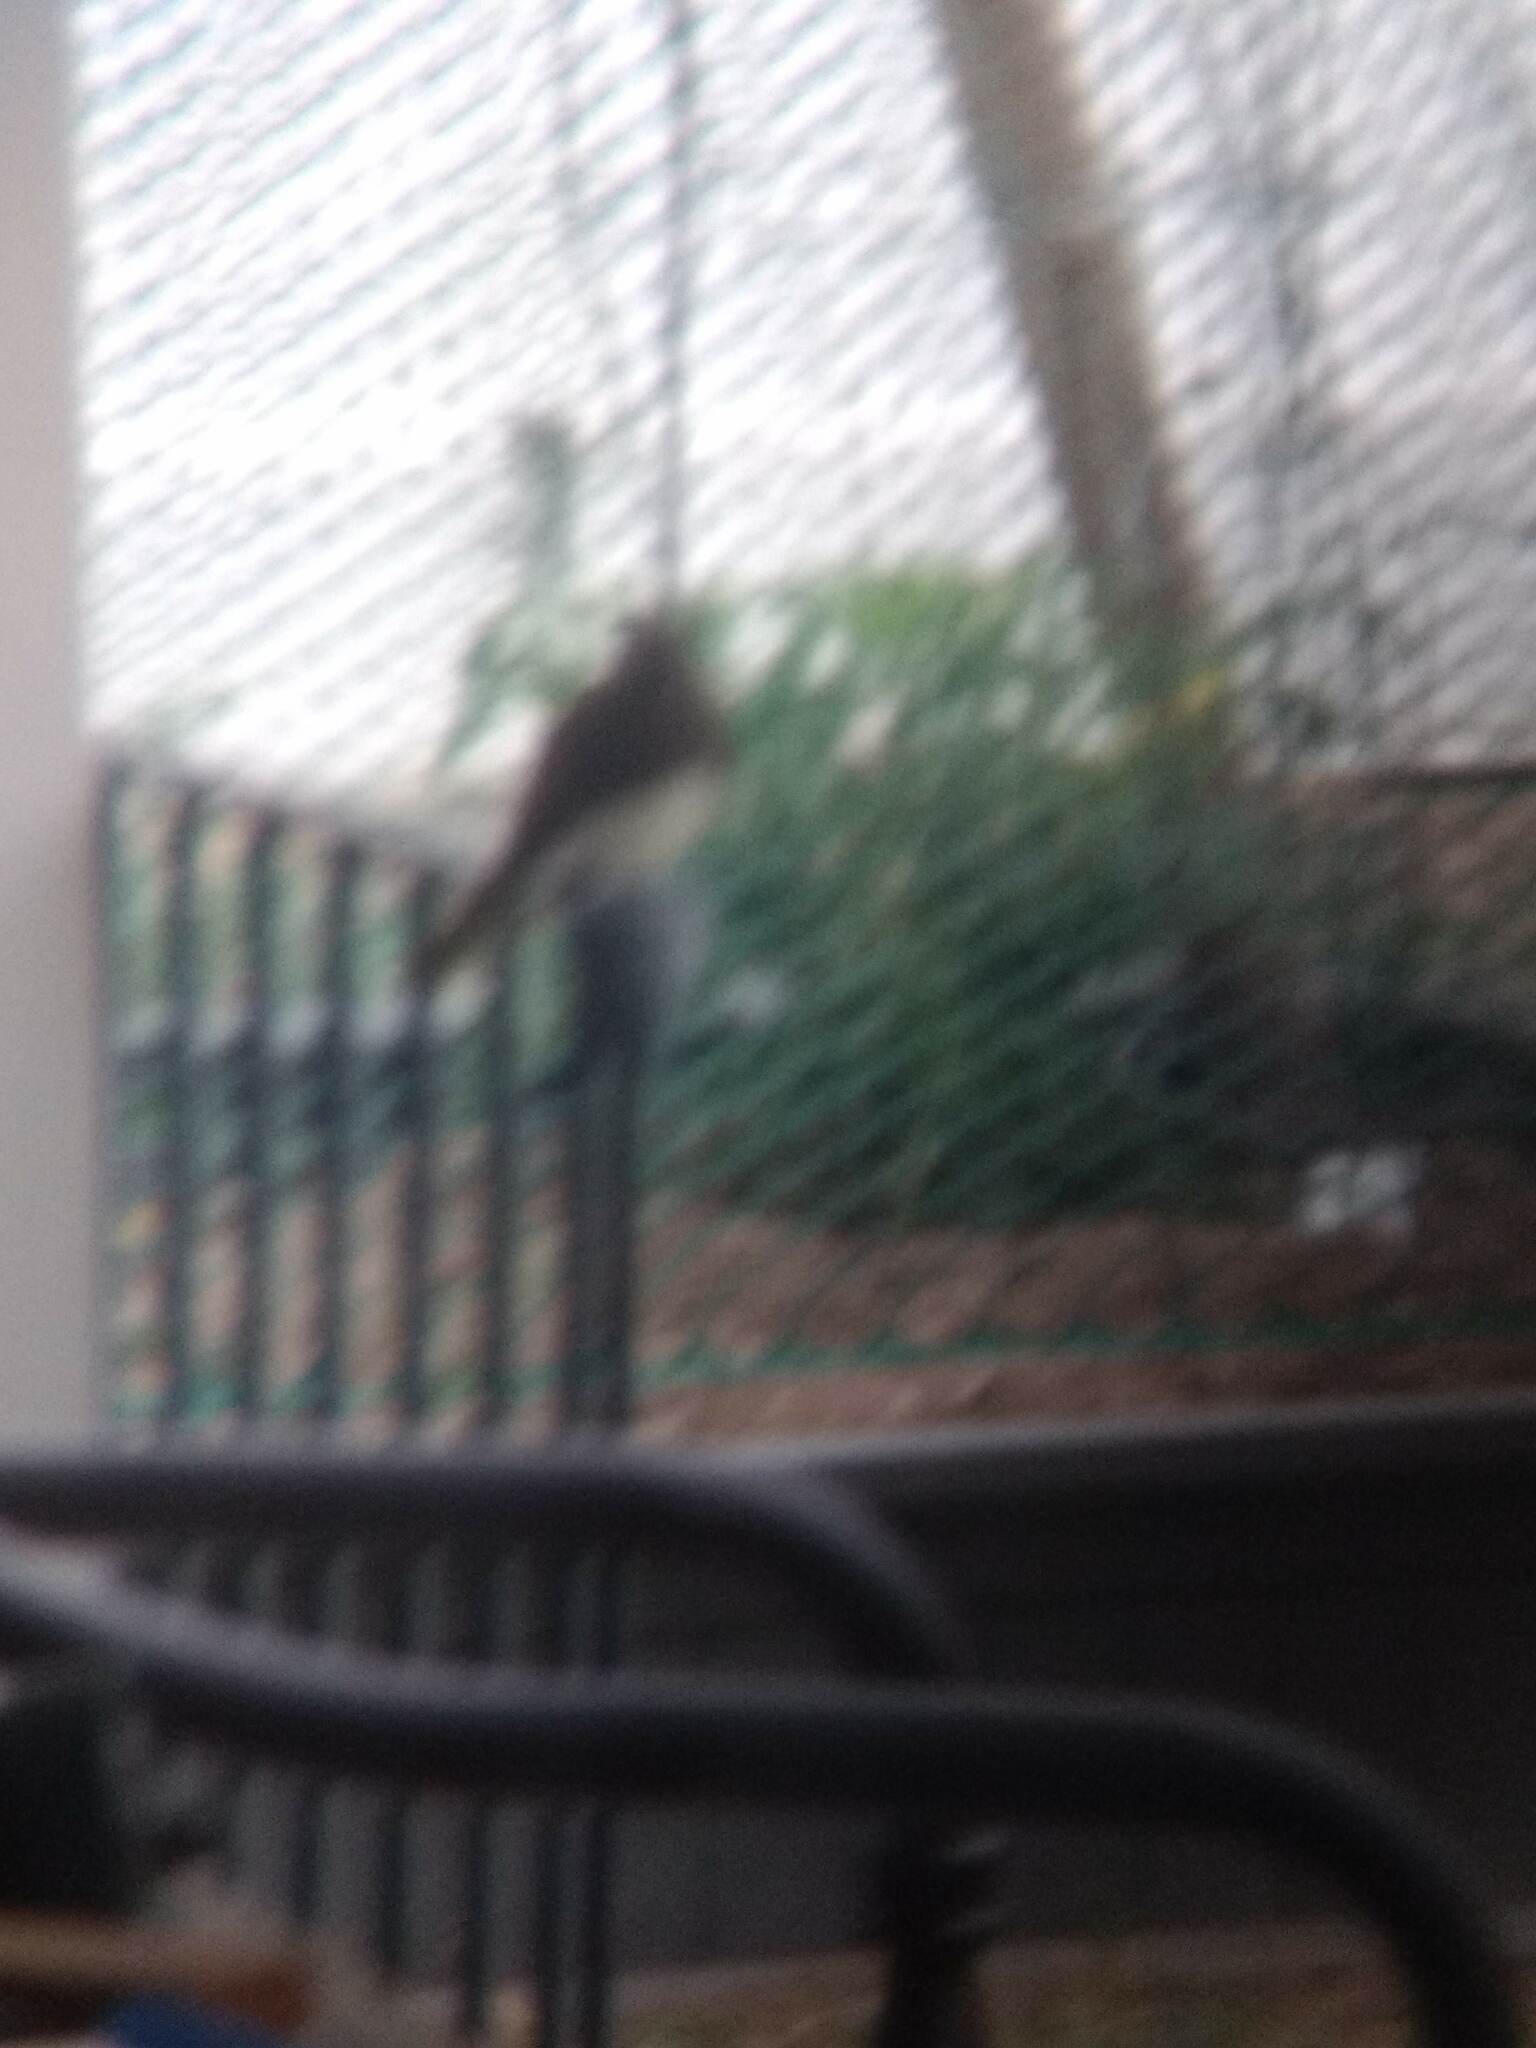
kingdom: Animalia
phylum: Chordata
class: Aves
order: Passeriformes
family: Tyrannidae
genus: Sayornis
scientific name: Sayornis nigricans
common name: Black phoebe
